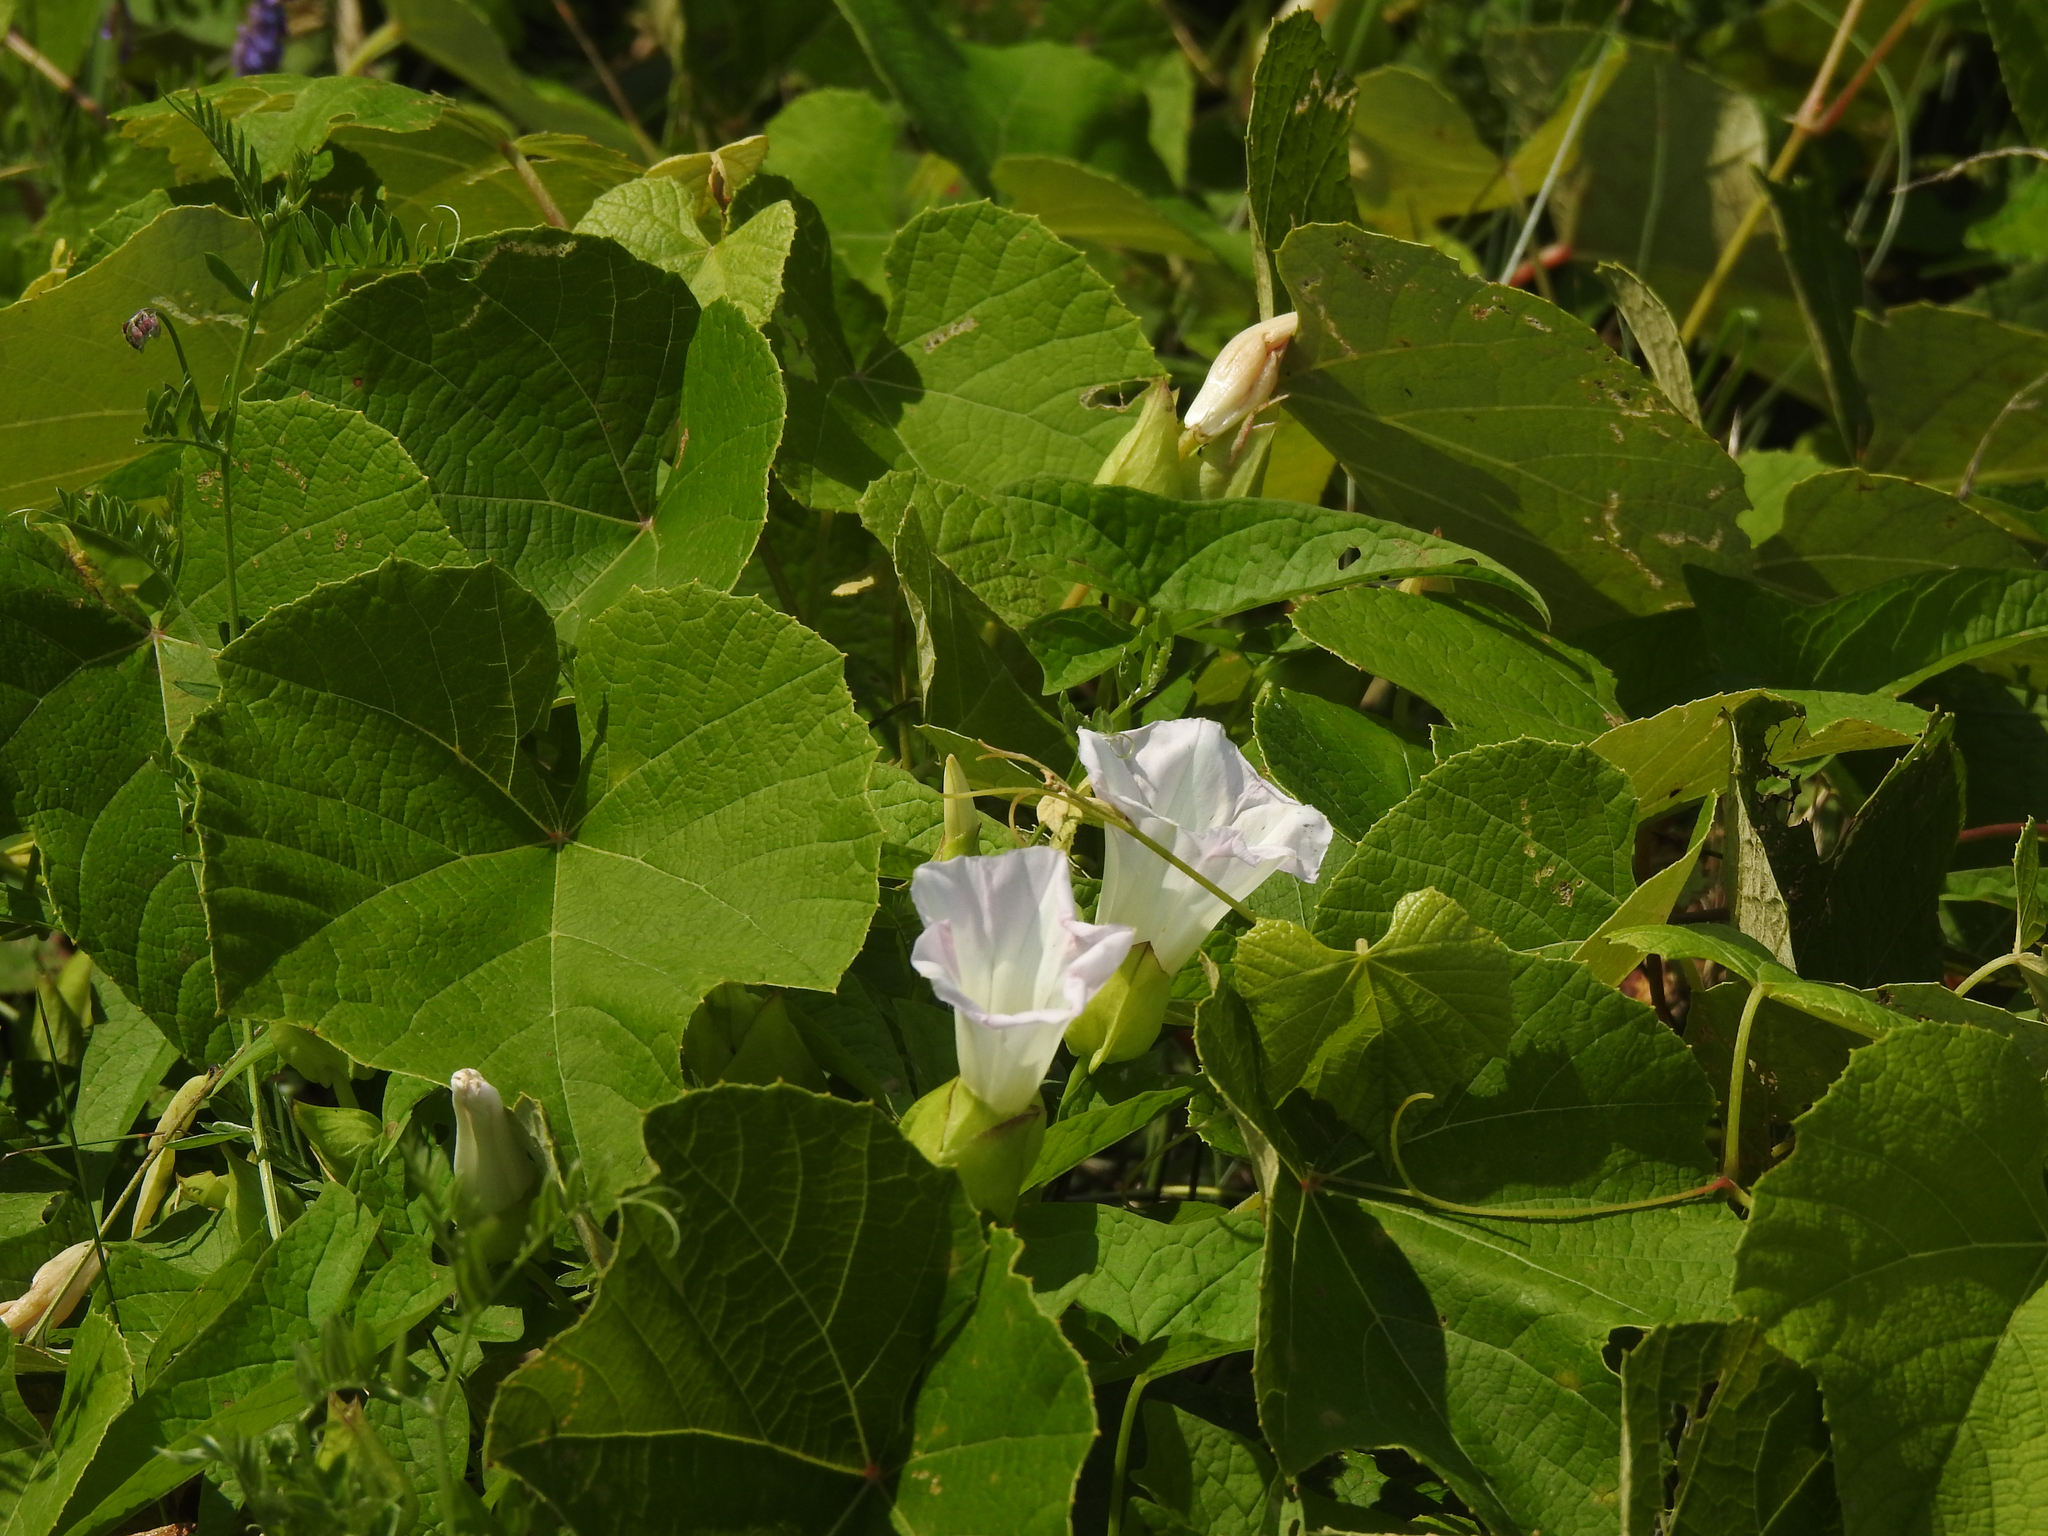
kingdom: Plantae
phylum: Tracheophyta
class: Magnoliopsida
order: Solanales
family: Convolvulaceae
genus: Calystegia
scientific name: Calystegia sepium
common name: Hedge bindweed
